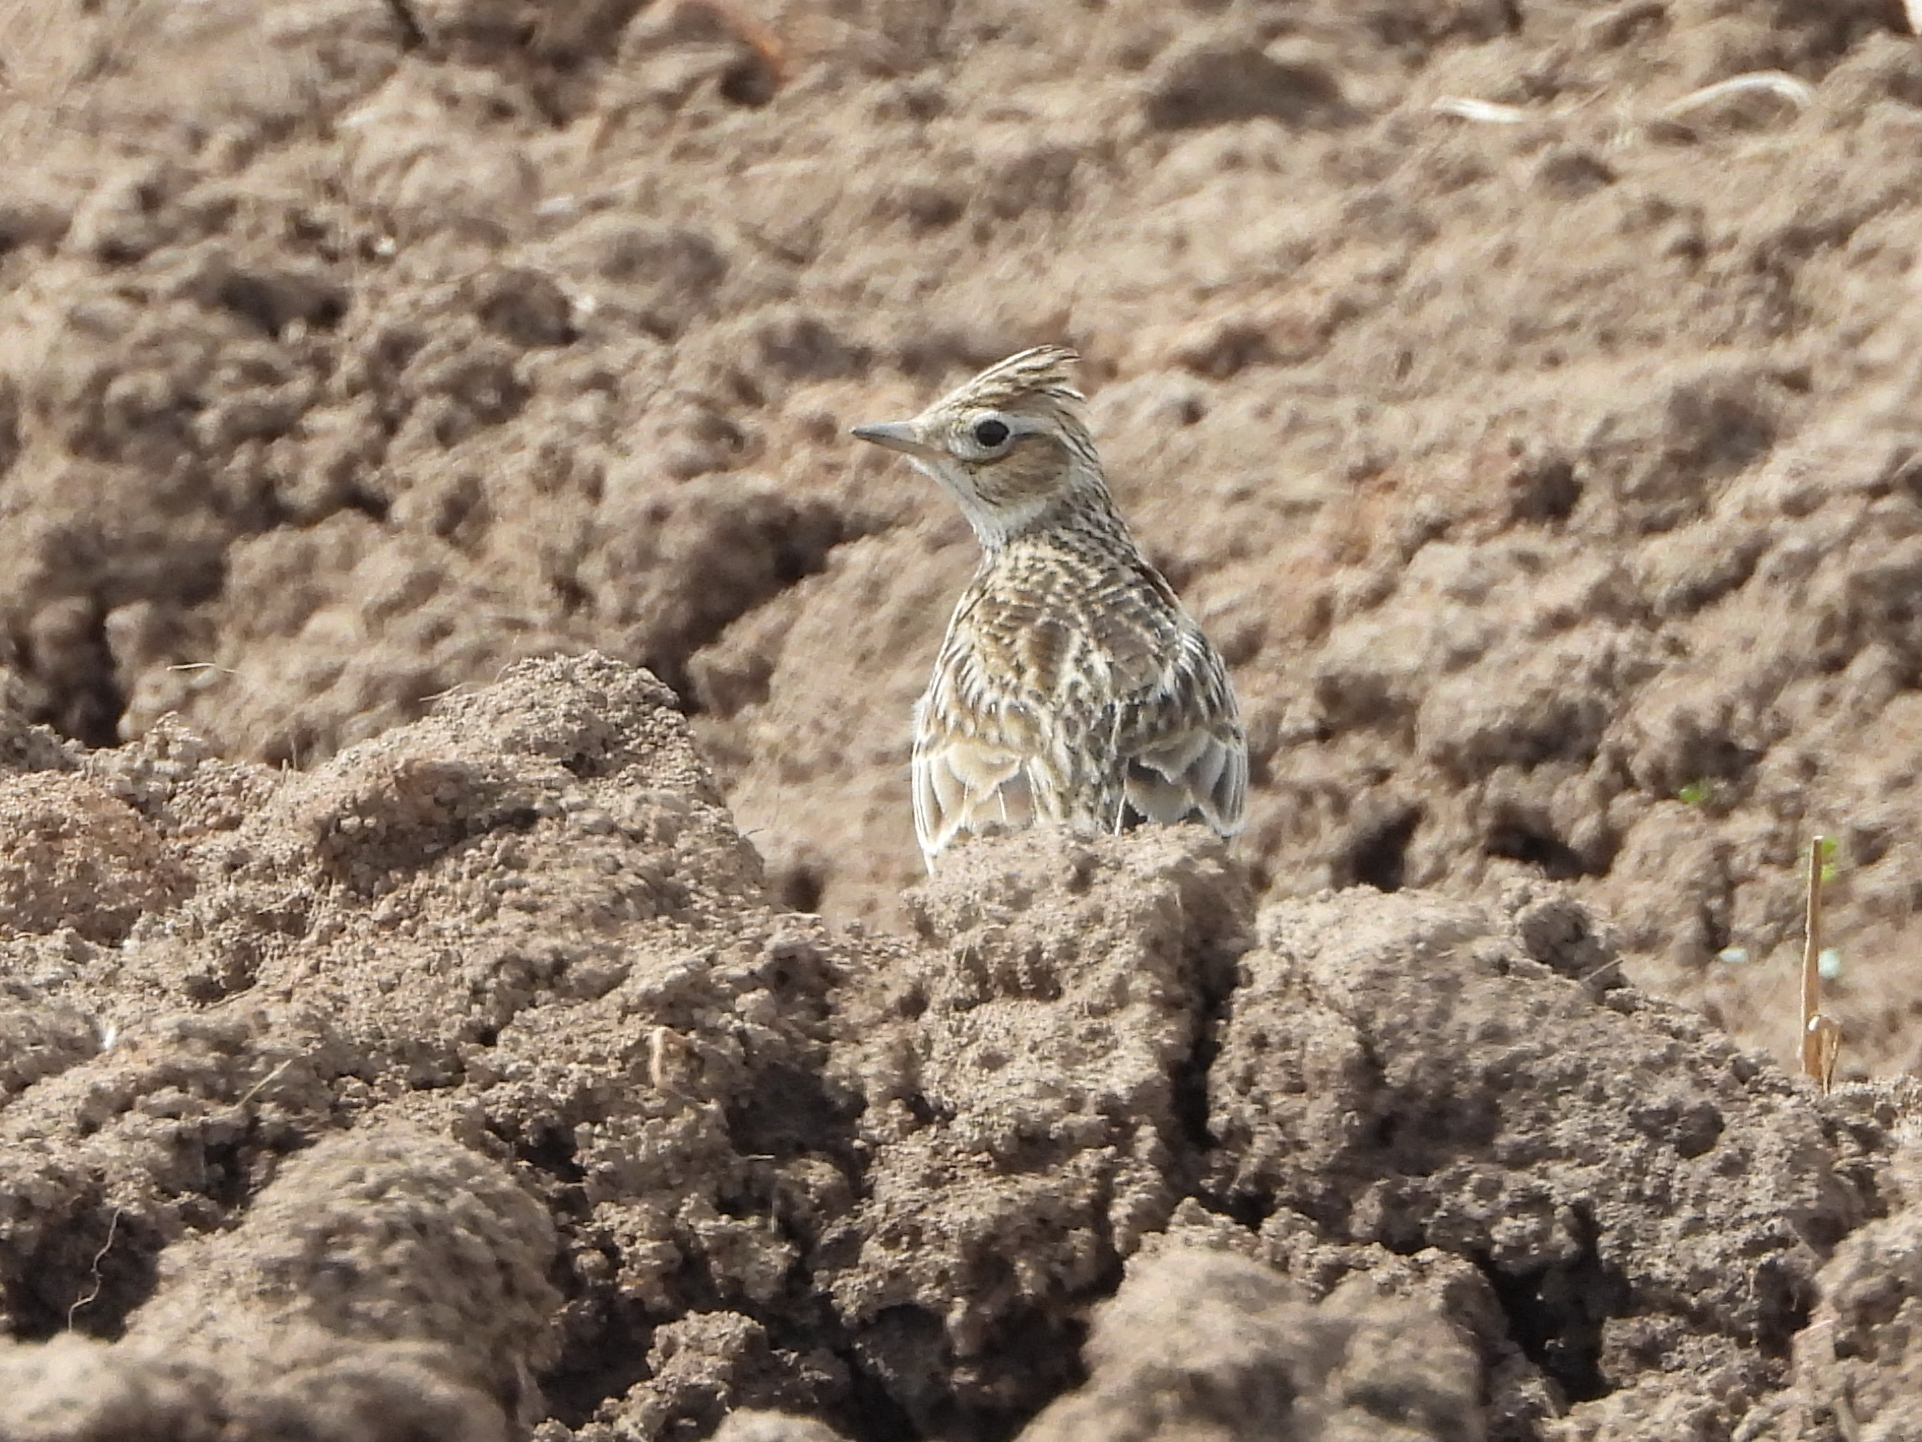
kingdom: Animalia
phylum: Chordata
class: Aves
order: Passeriformes
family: Alaudidae
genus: Alauda
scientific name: Alauda arvensis
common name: Eurasian skylark
